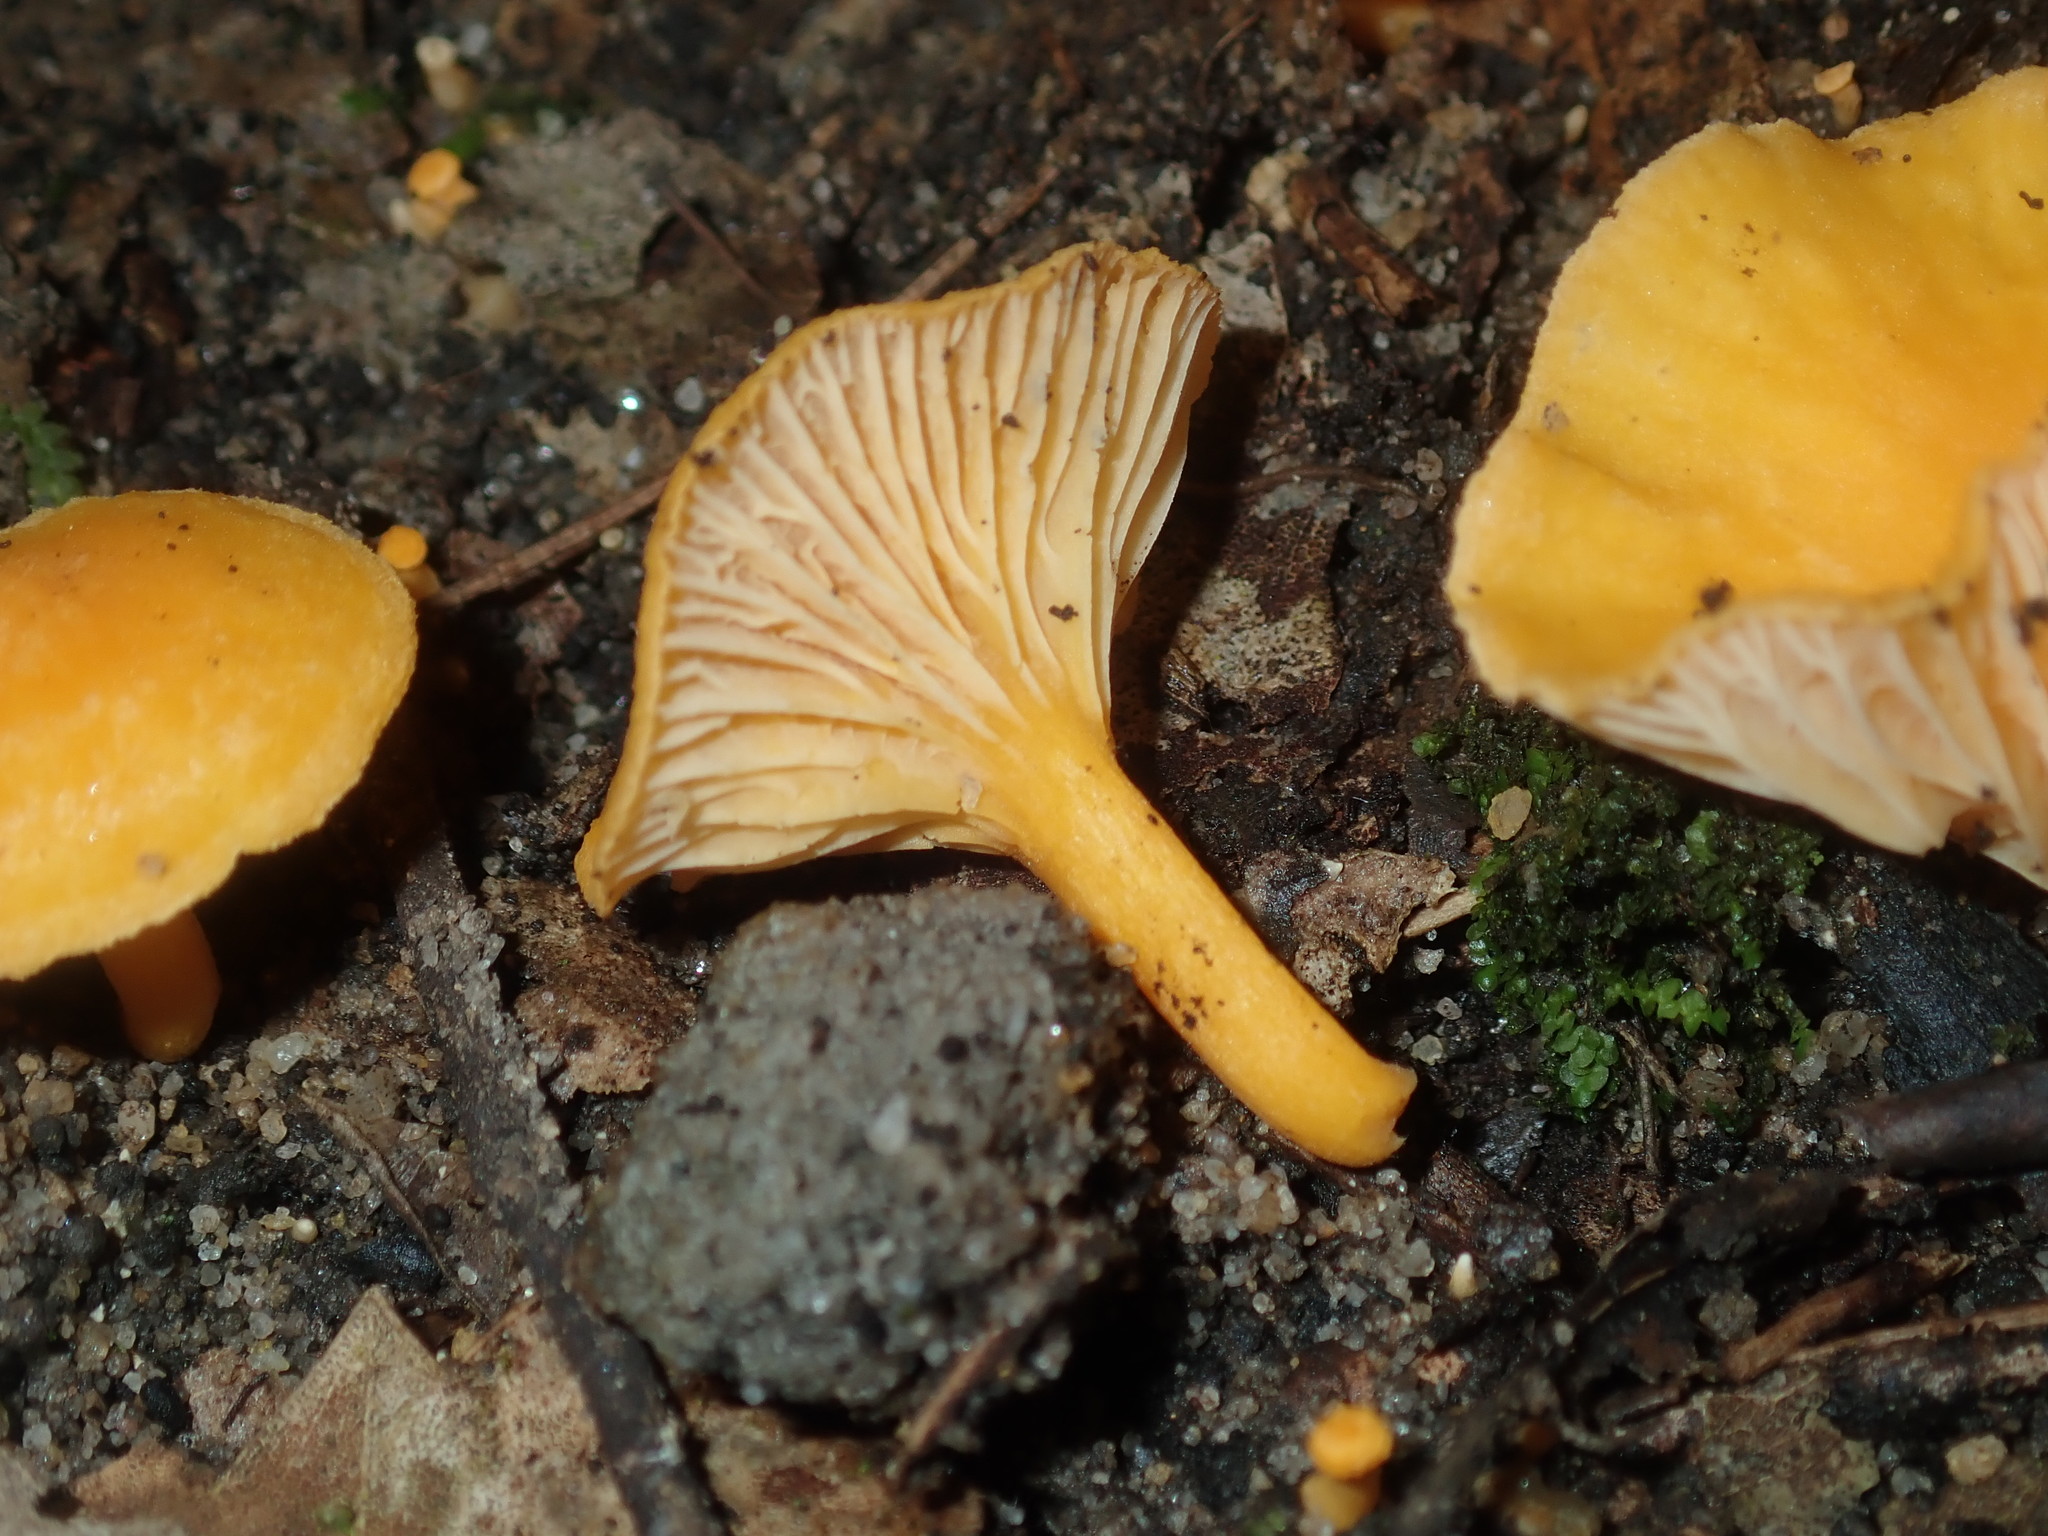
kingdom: Fungi
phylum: Basidiomycota
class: Agaricomycetes
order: Cantharellales
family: Hydnaceae
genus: Cantharellus
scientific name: Cantharellus
